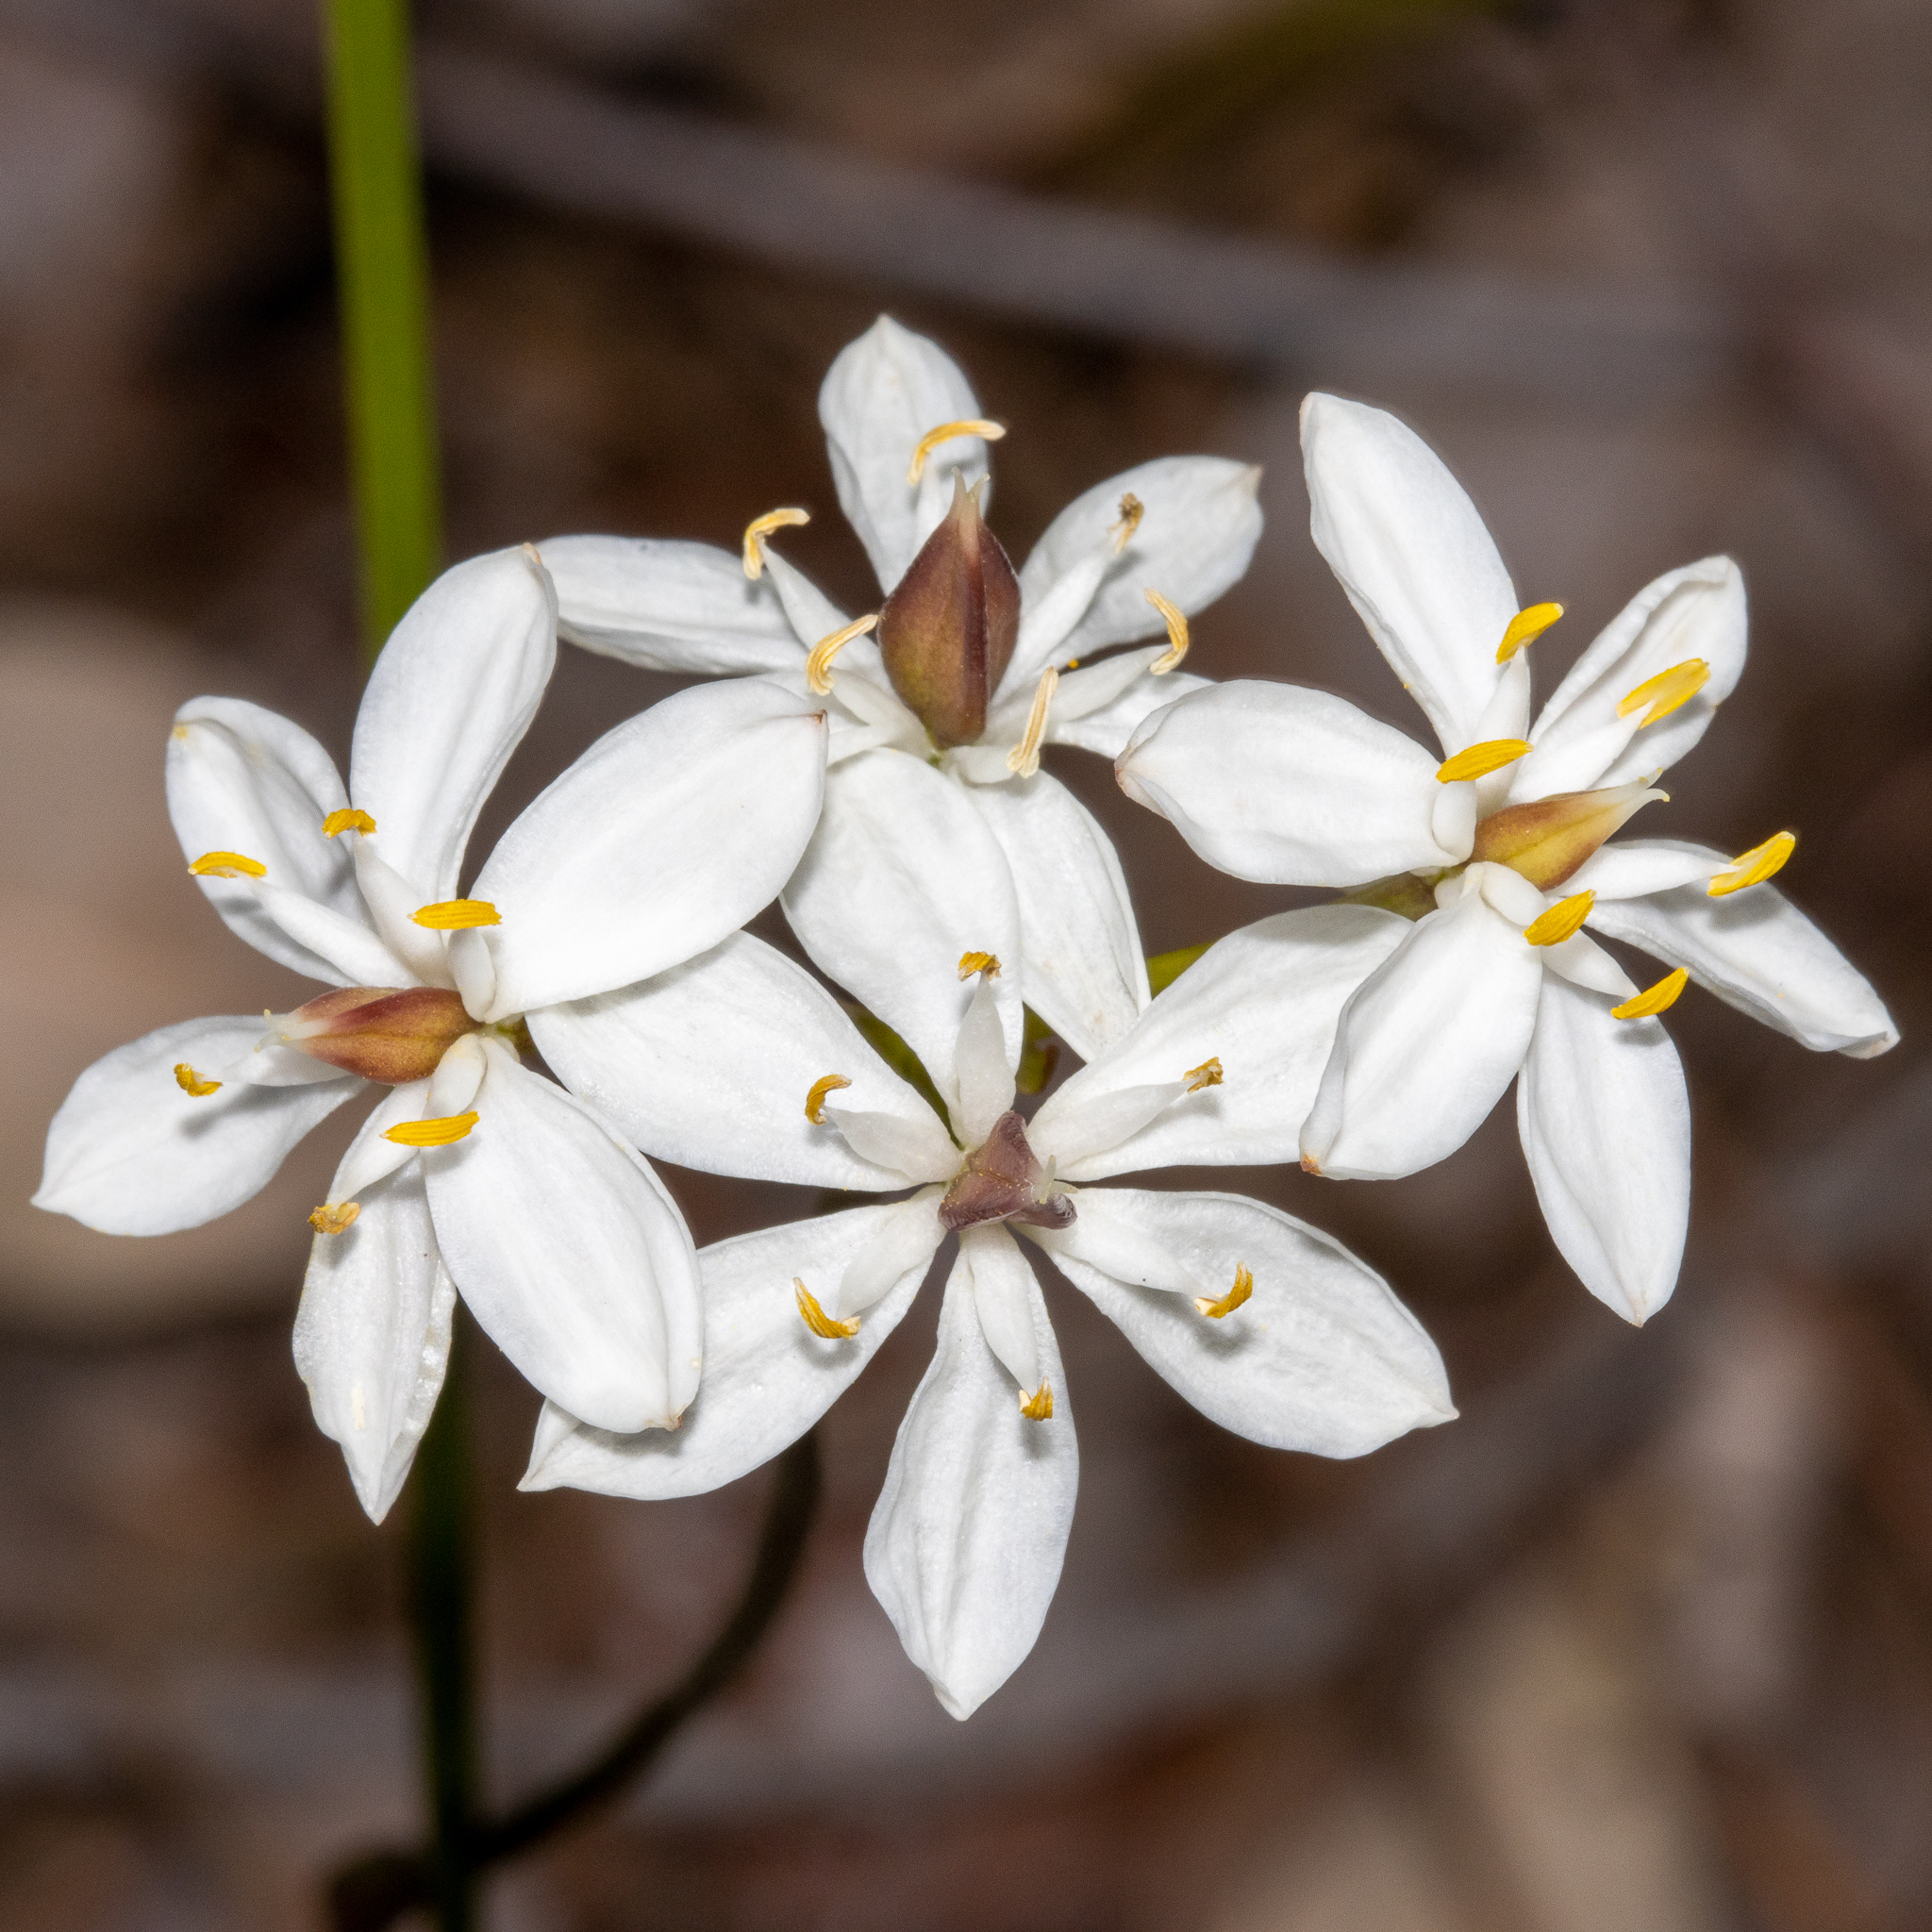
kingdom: Plantae
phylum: Tracheophyta
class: Liliopsida
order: Liliales
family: Colchicaceae
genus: Burchardia
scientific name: Burchardia congesta
